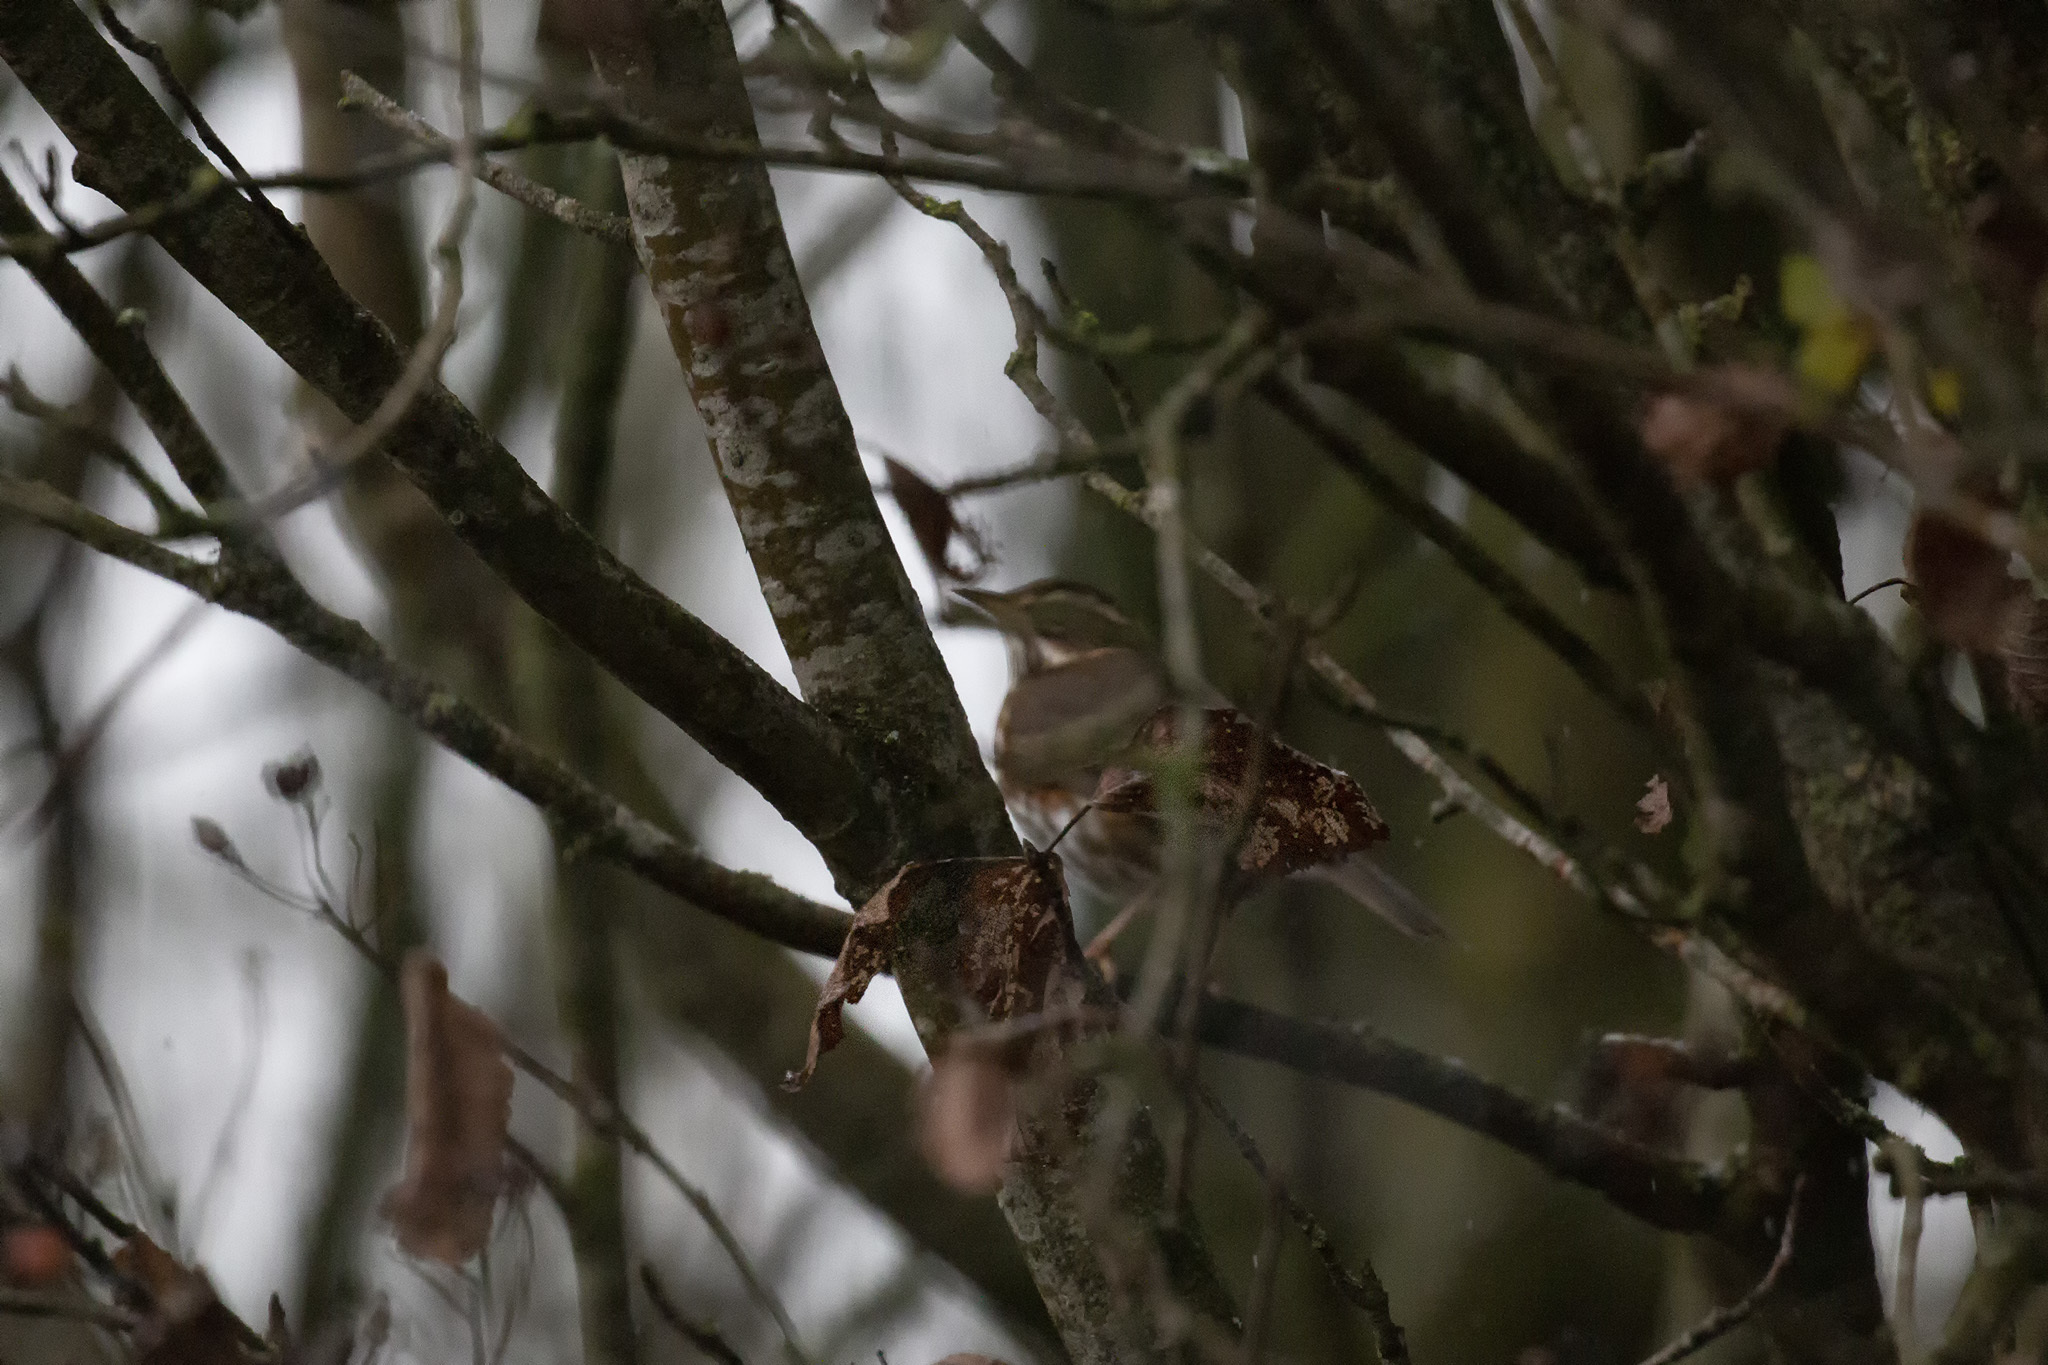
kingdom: Animalia
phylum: Chordata
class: Aves
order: Passeriformes
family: Turdidae
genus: Turdus
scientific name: Turdus iliacus
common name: Redwing
